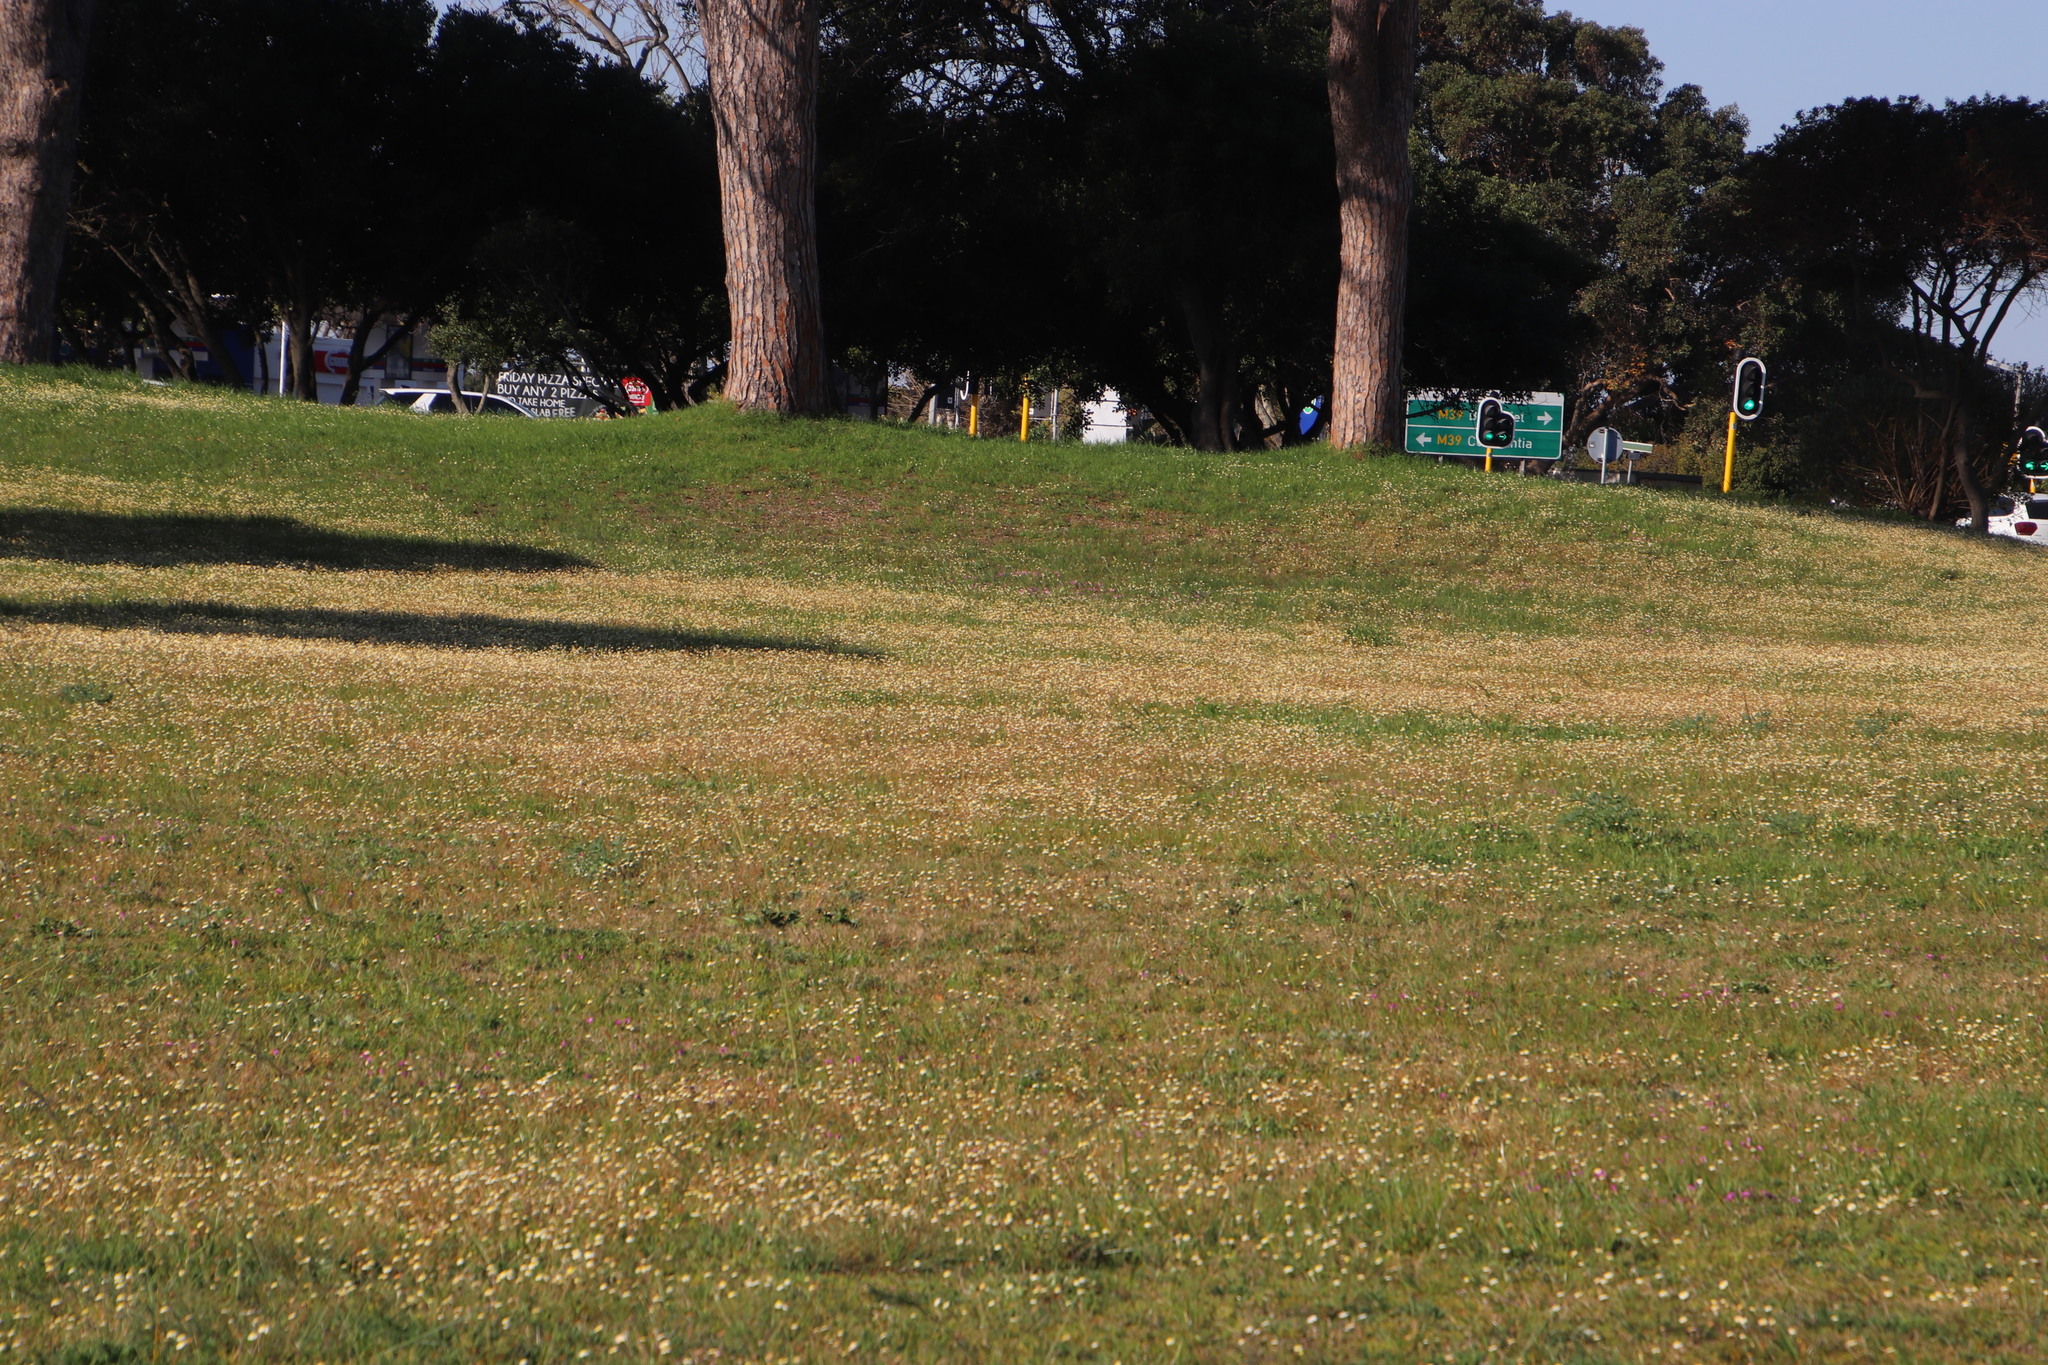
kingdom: Plantae
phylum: Tracheophyta
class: Magnoliopsida
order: Asterales
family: Asteraceae
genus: Cotula
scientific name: Cotula turbinata
